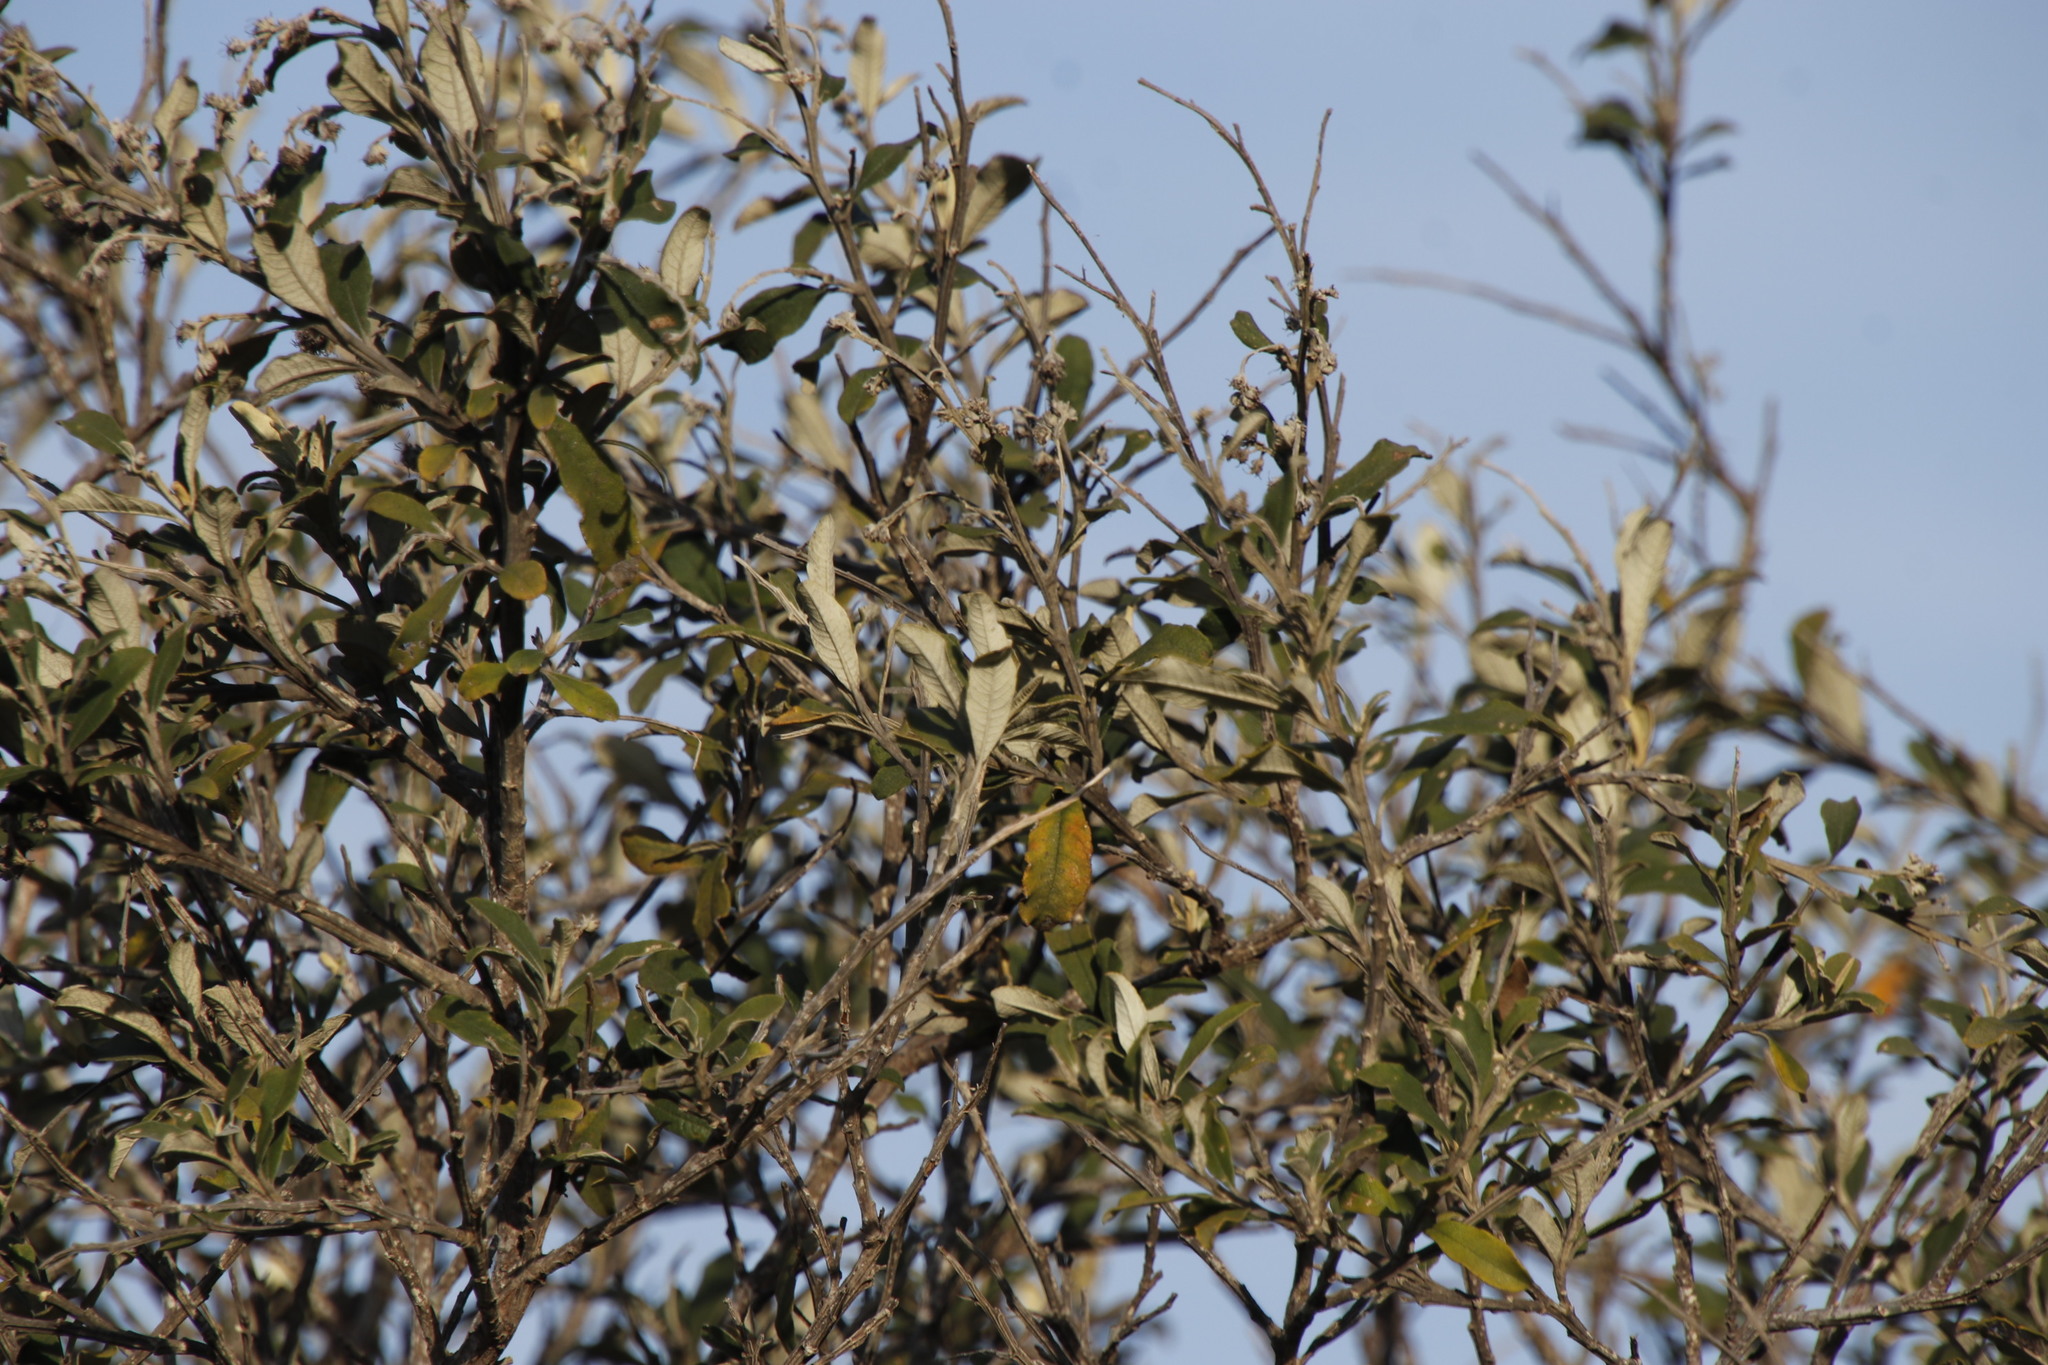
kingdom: Plantae
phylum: Tracheophyta
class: Magnoliopsida
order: Asterales
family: Asteraceae
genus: Tarchonanthus
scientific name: Tarchonanthus littoralis
